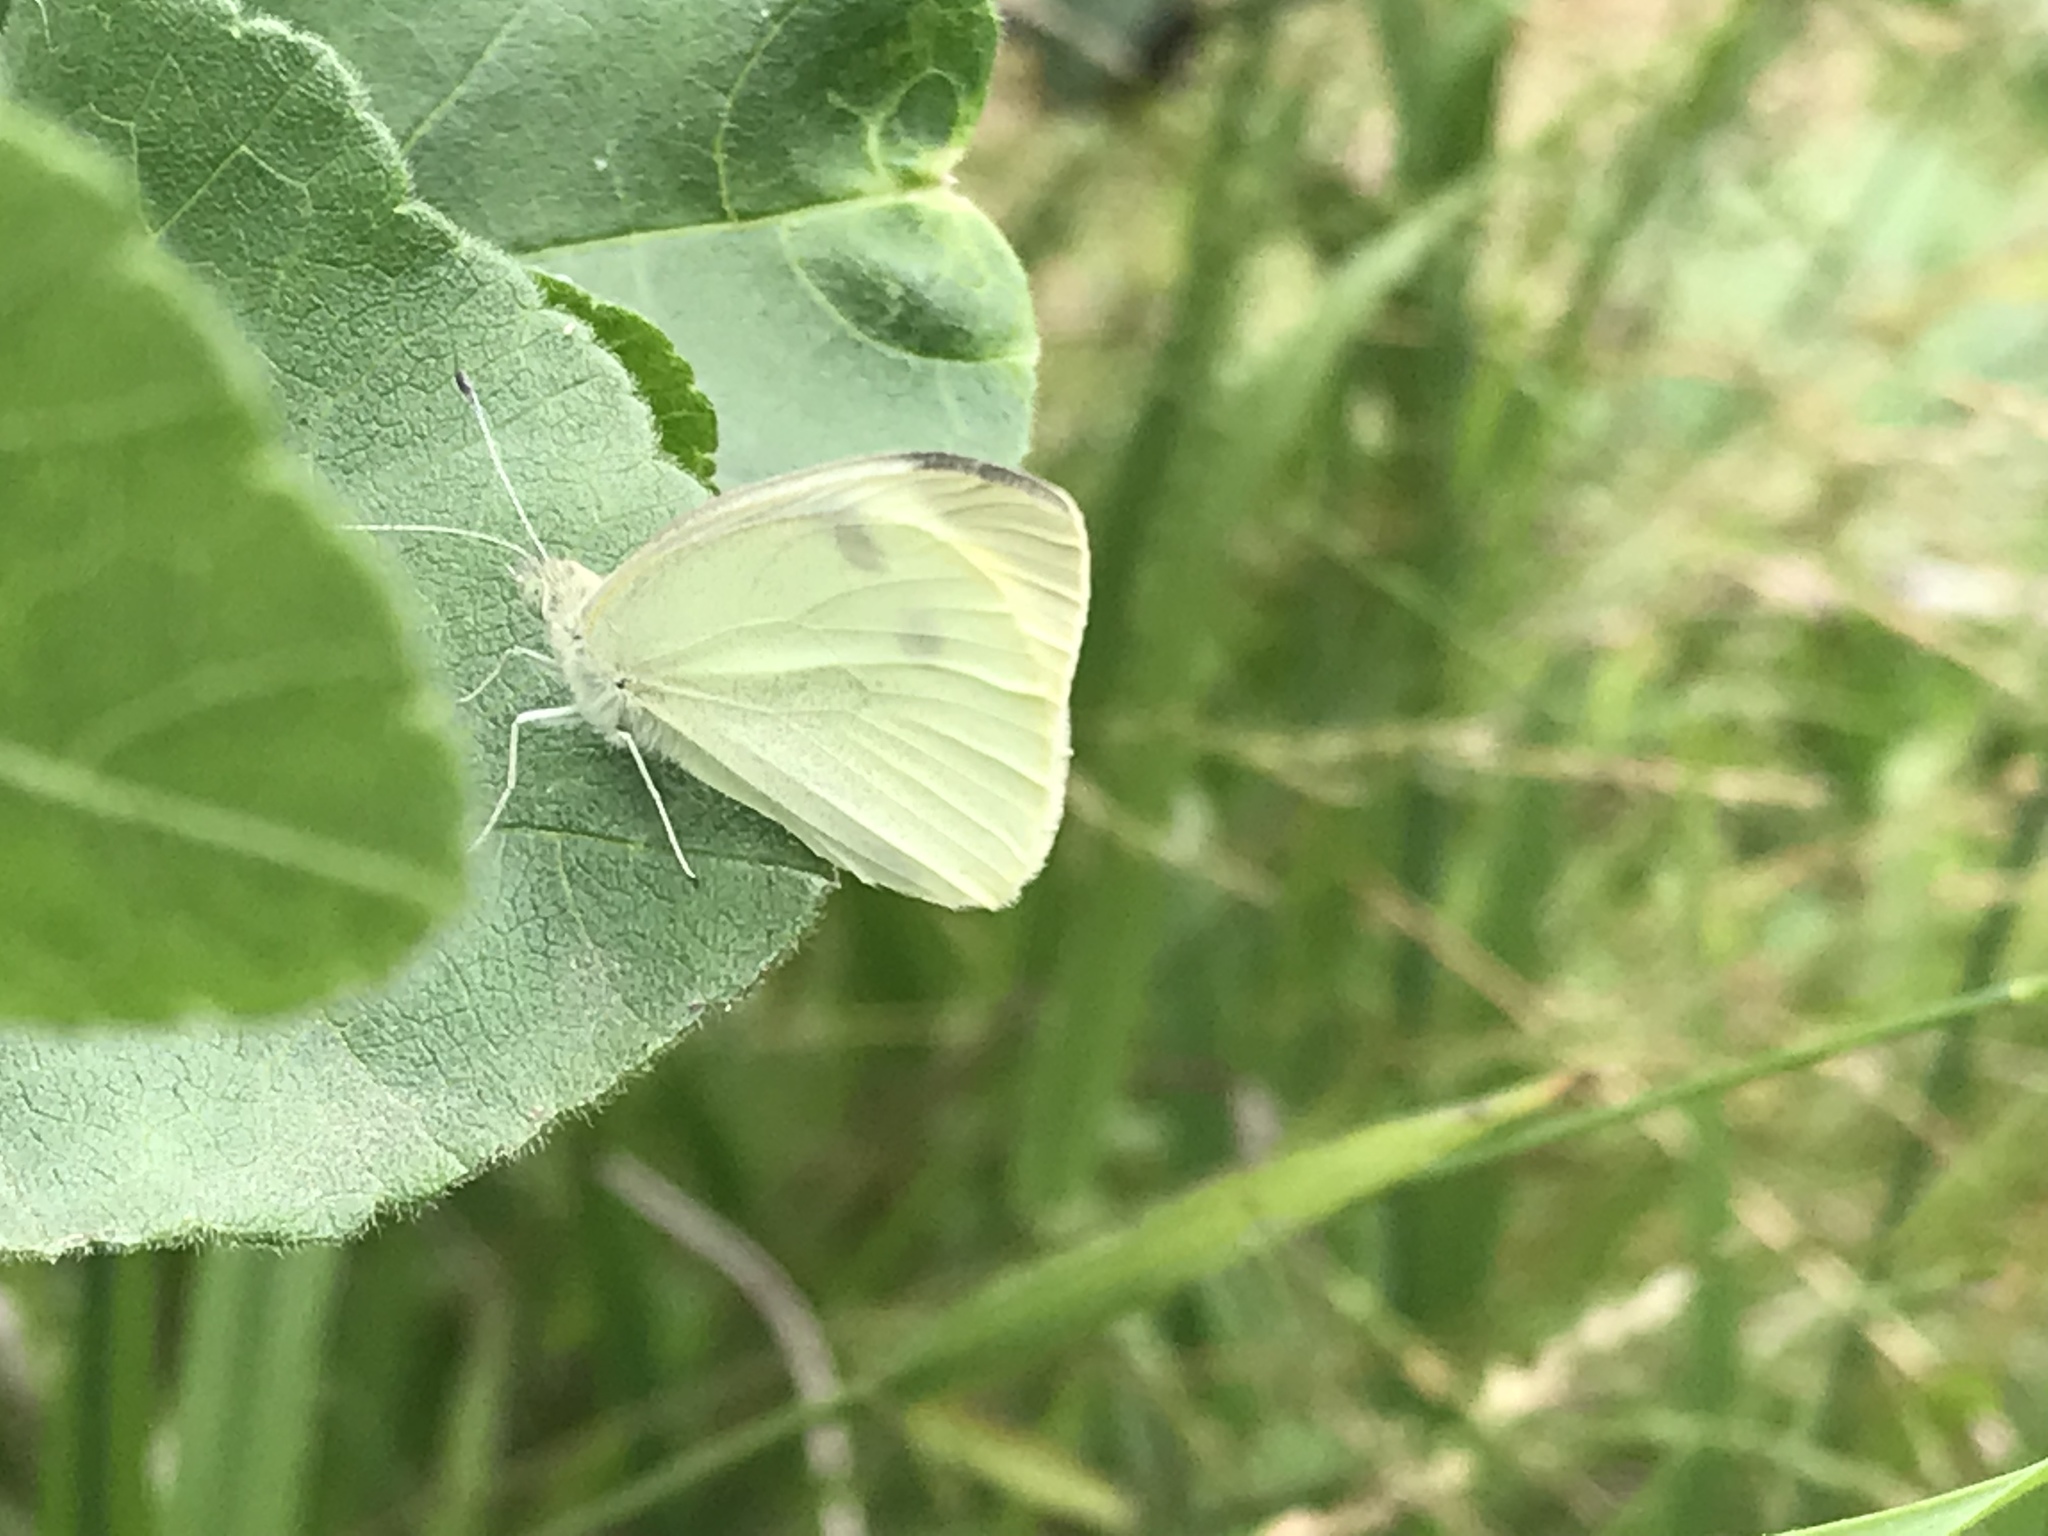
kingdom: Animalia
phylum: Arthropoda
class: Insecta
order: Lepidoptera
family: Pieridae
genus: Pieris
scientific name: Pieris rapae
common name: Small white
